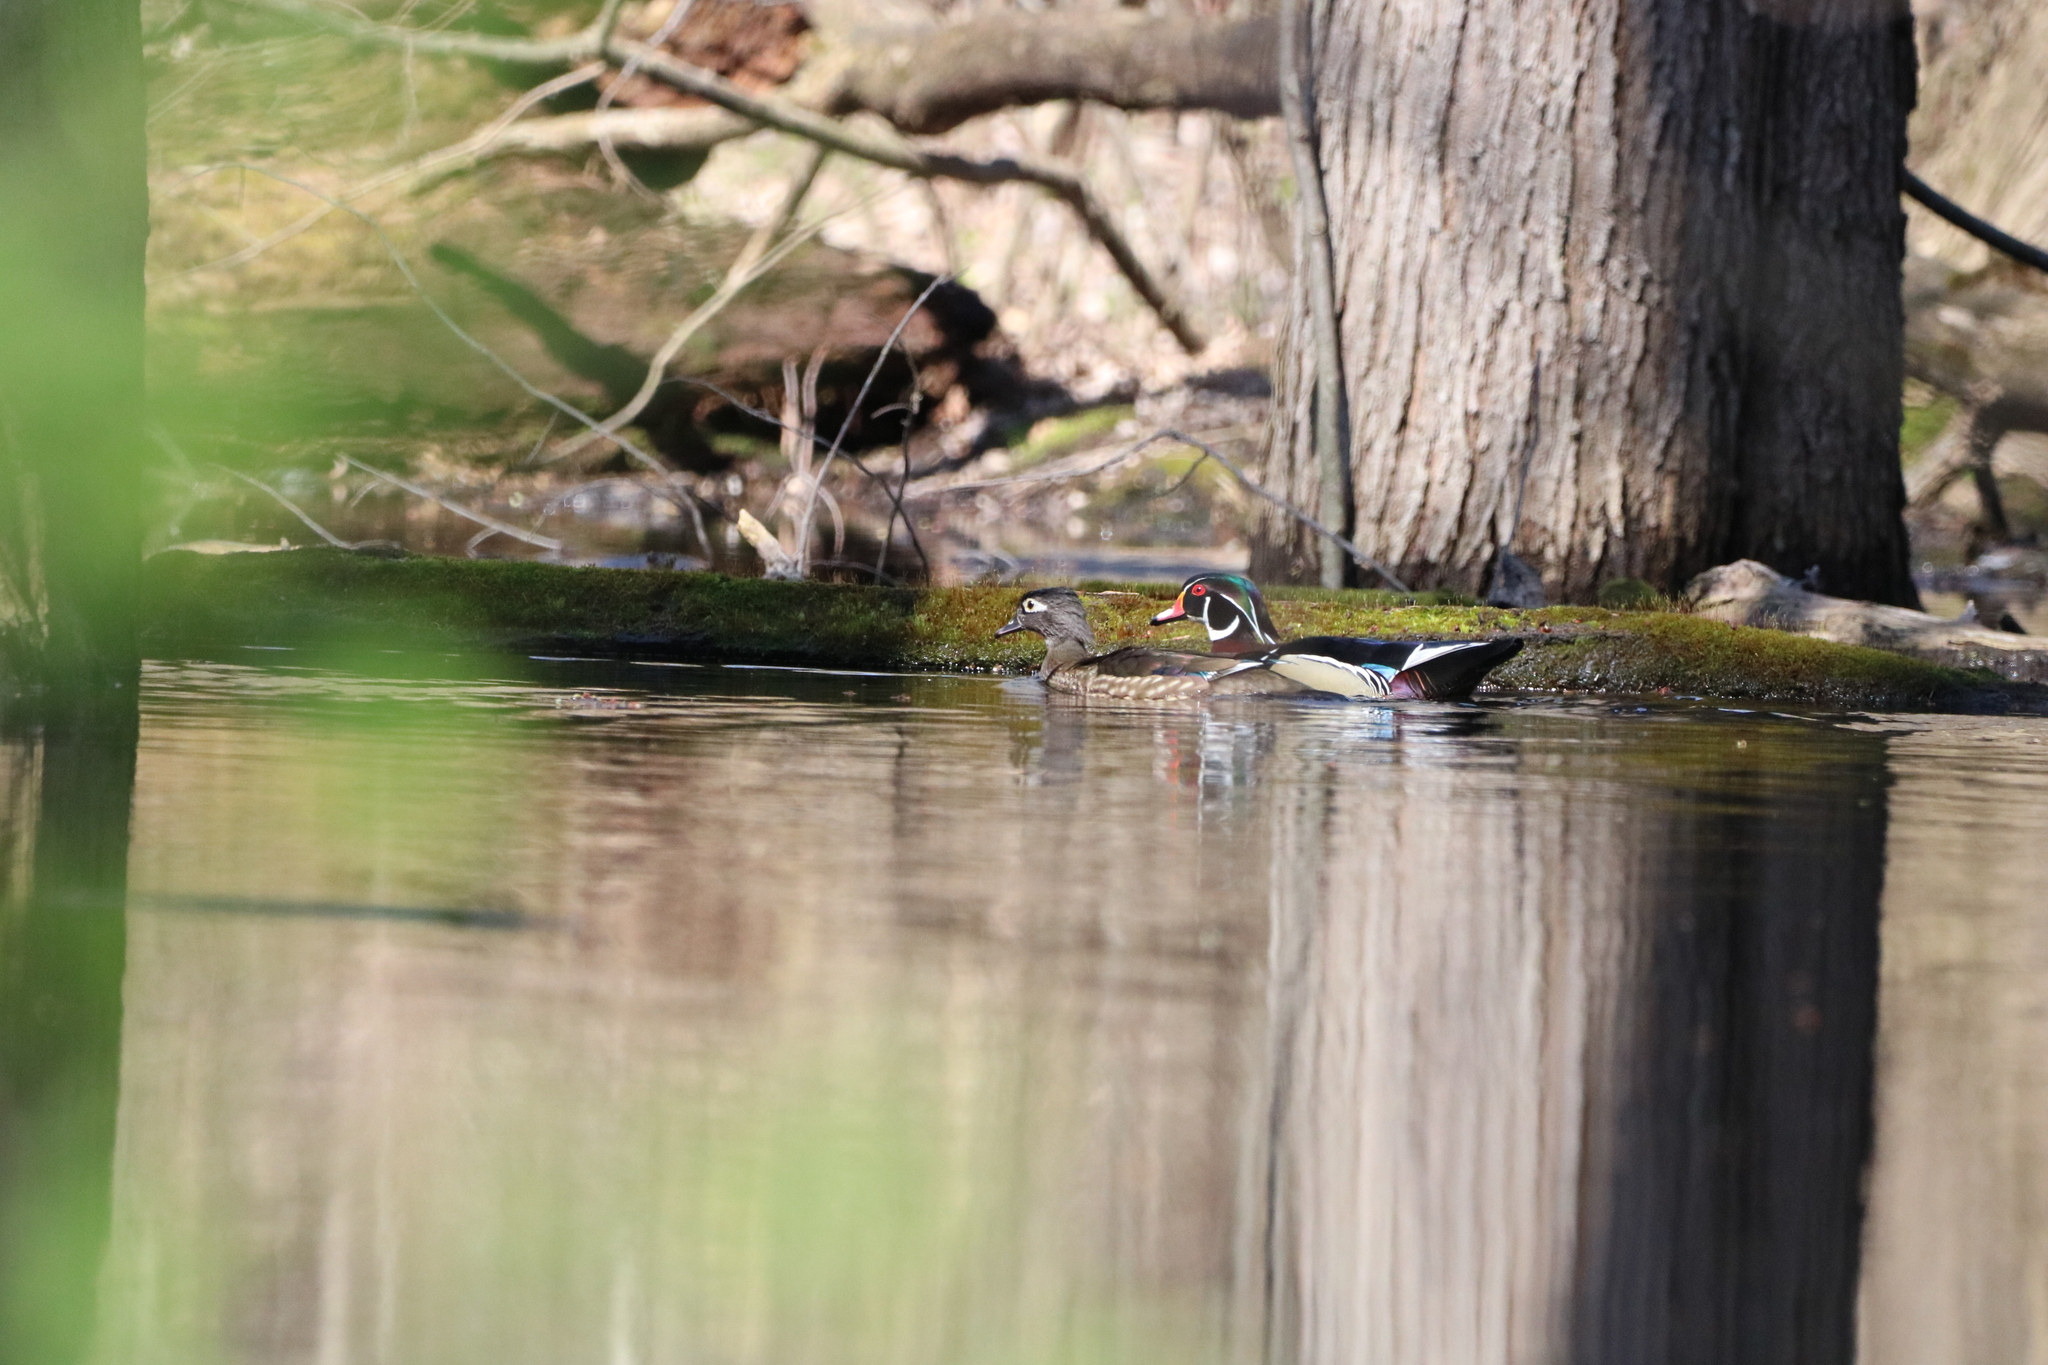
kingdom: Animalia
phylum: Chordata
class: Aves
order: Anseriformes
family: Anatidae
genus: Aix
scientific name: Aix sponsa
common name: Wood duck
